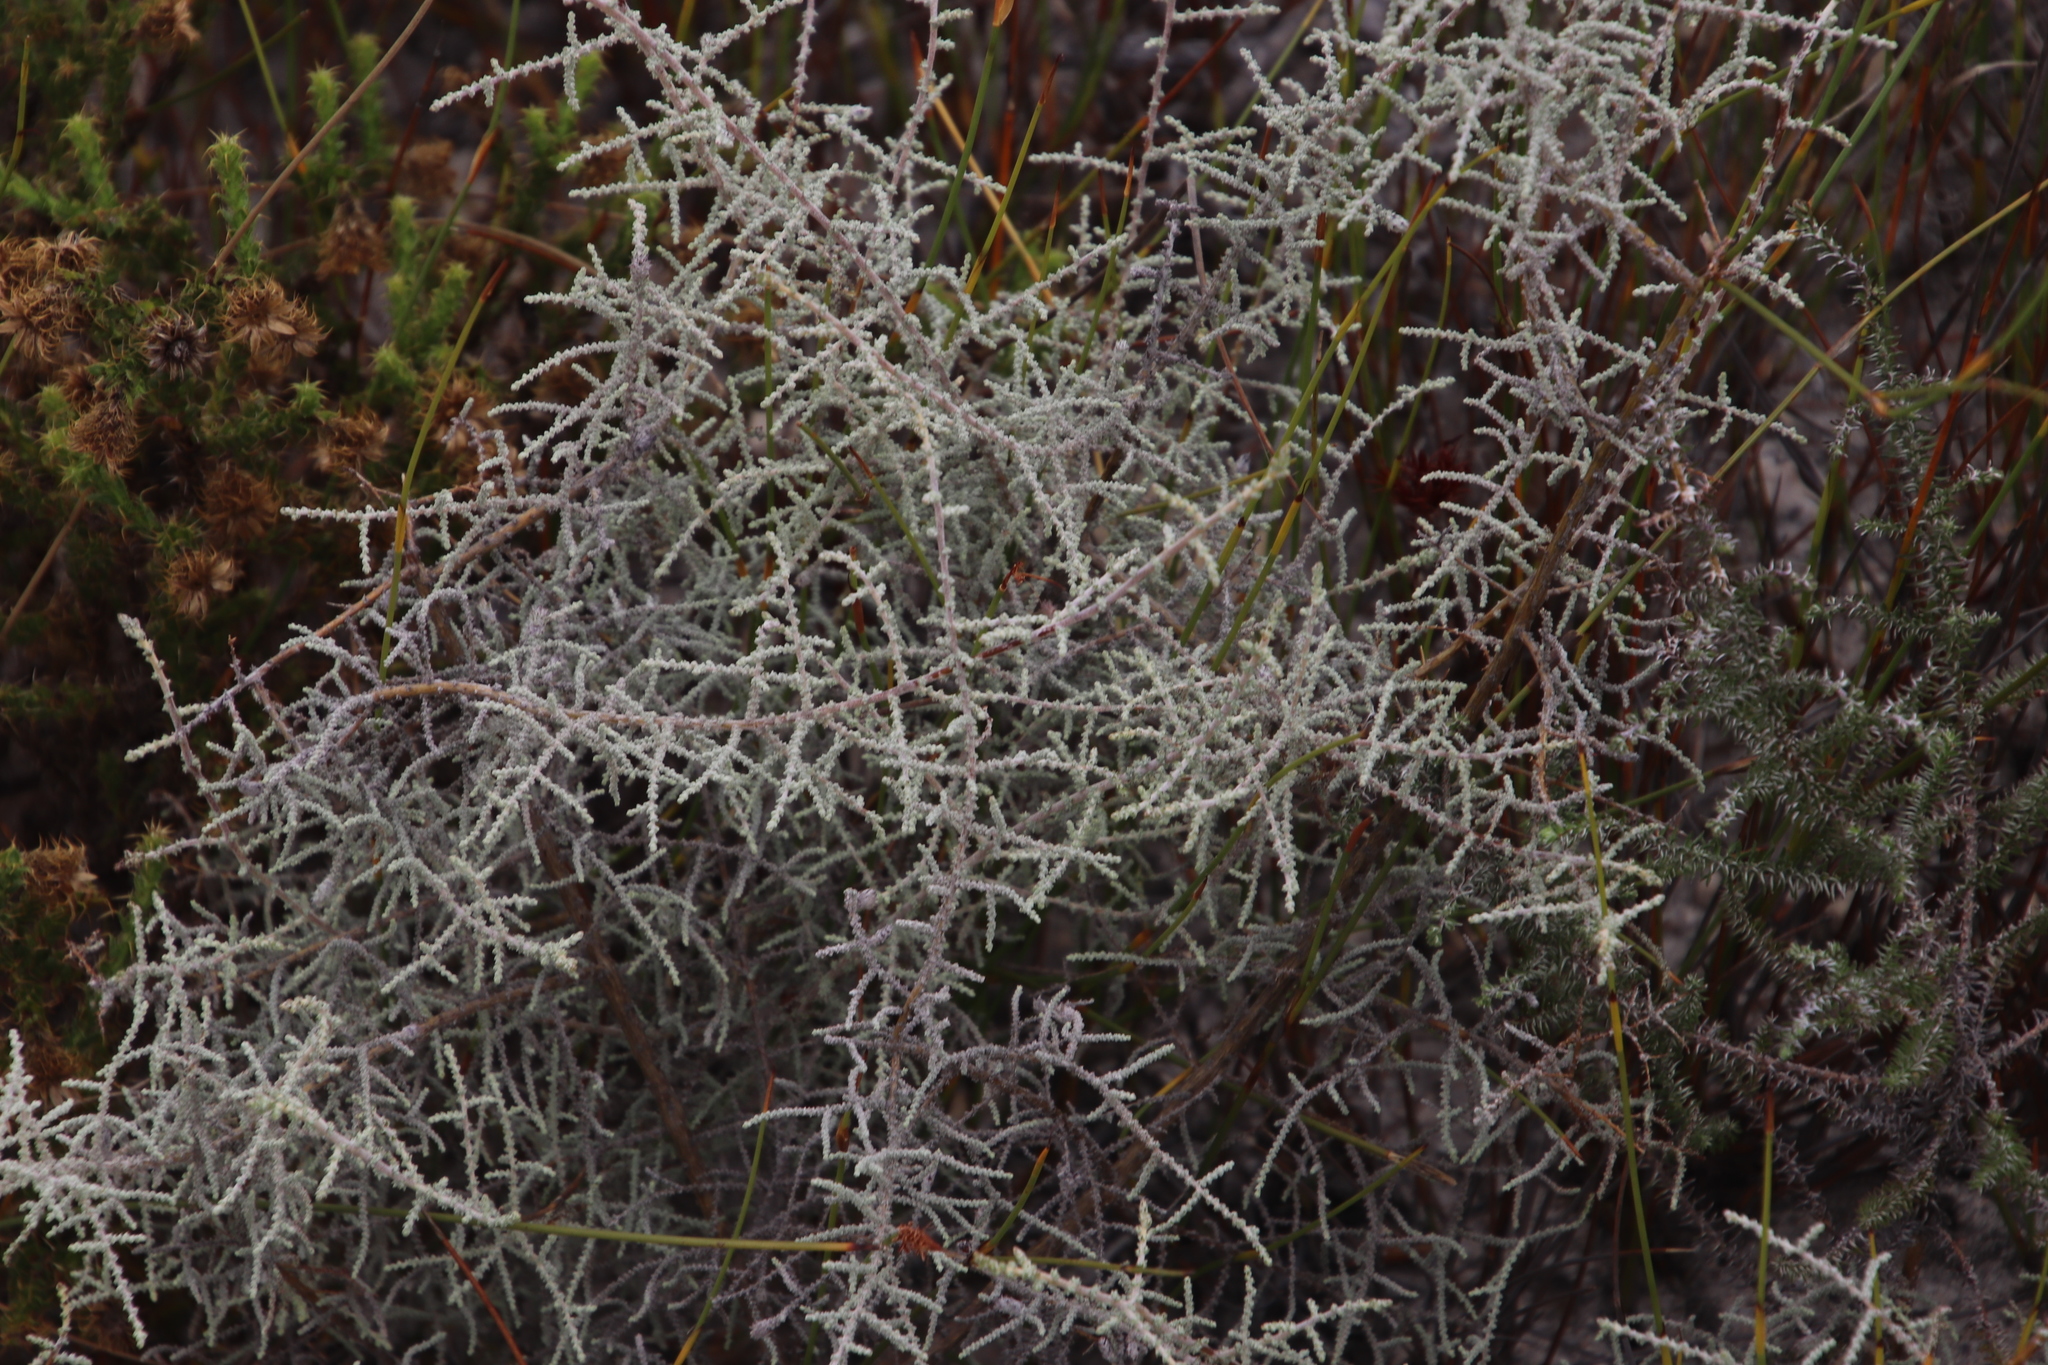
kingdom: Plantae
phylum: Tracheophyta
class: Magnoliopsida
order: Asterales
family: Asteraceae
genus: Seriphium
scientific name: Seriphium plumosum
